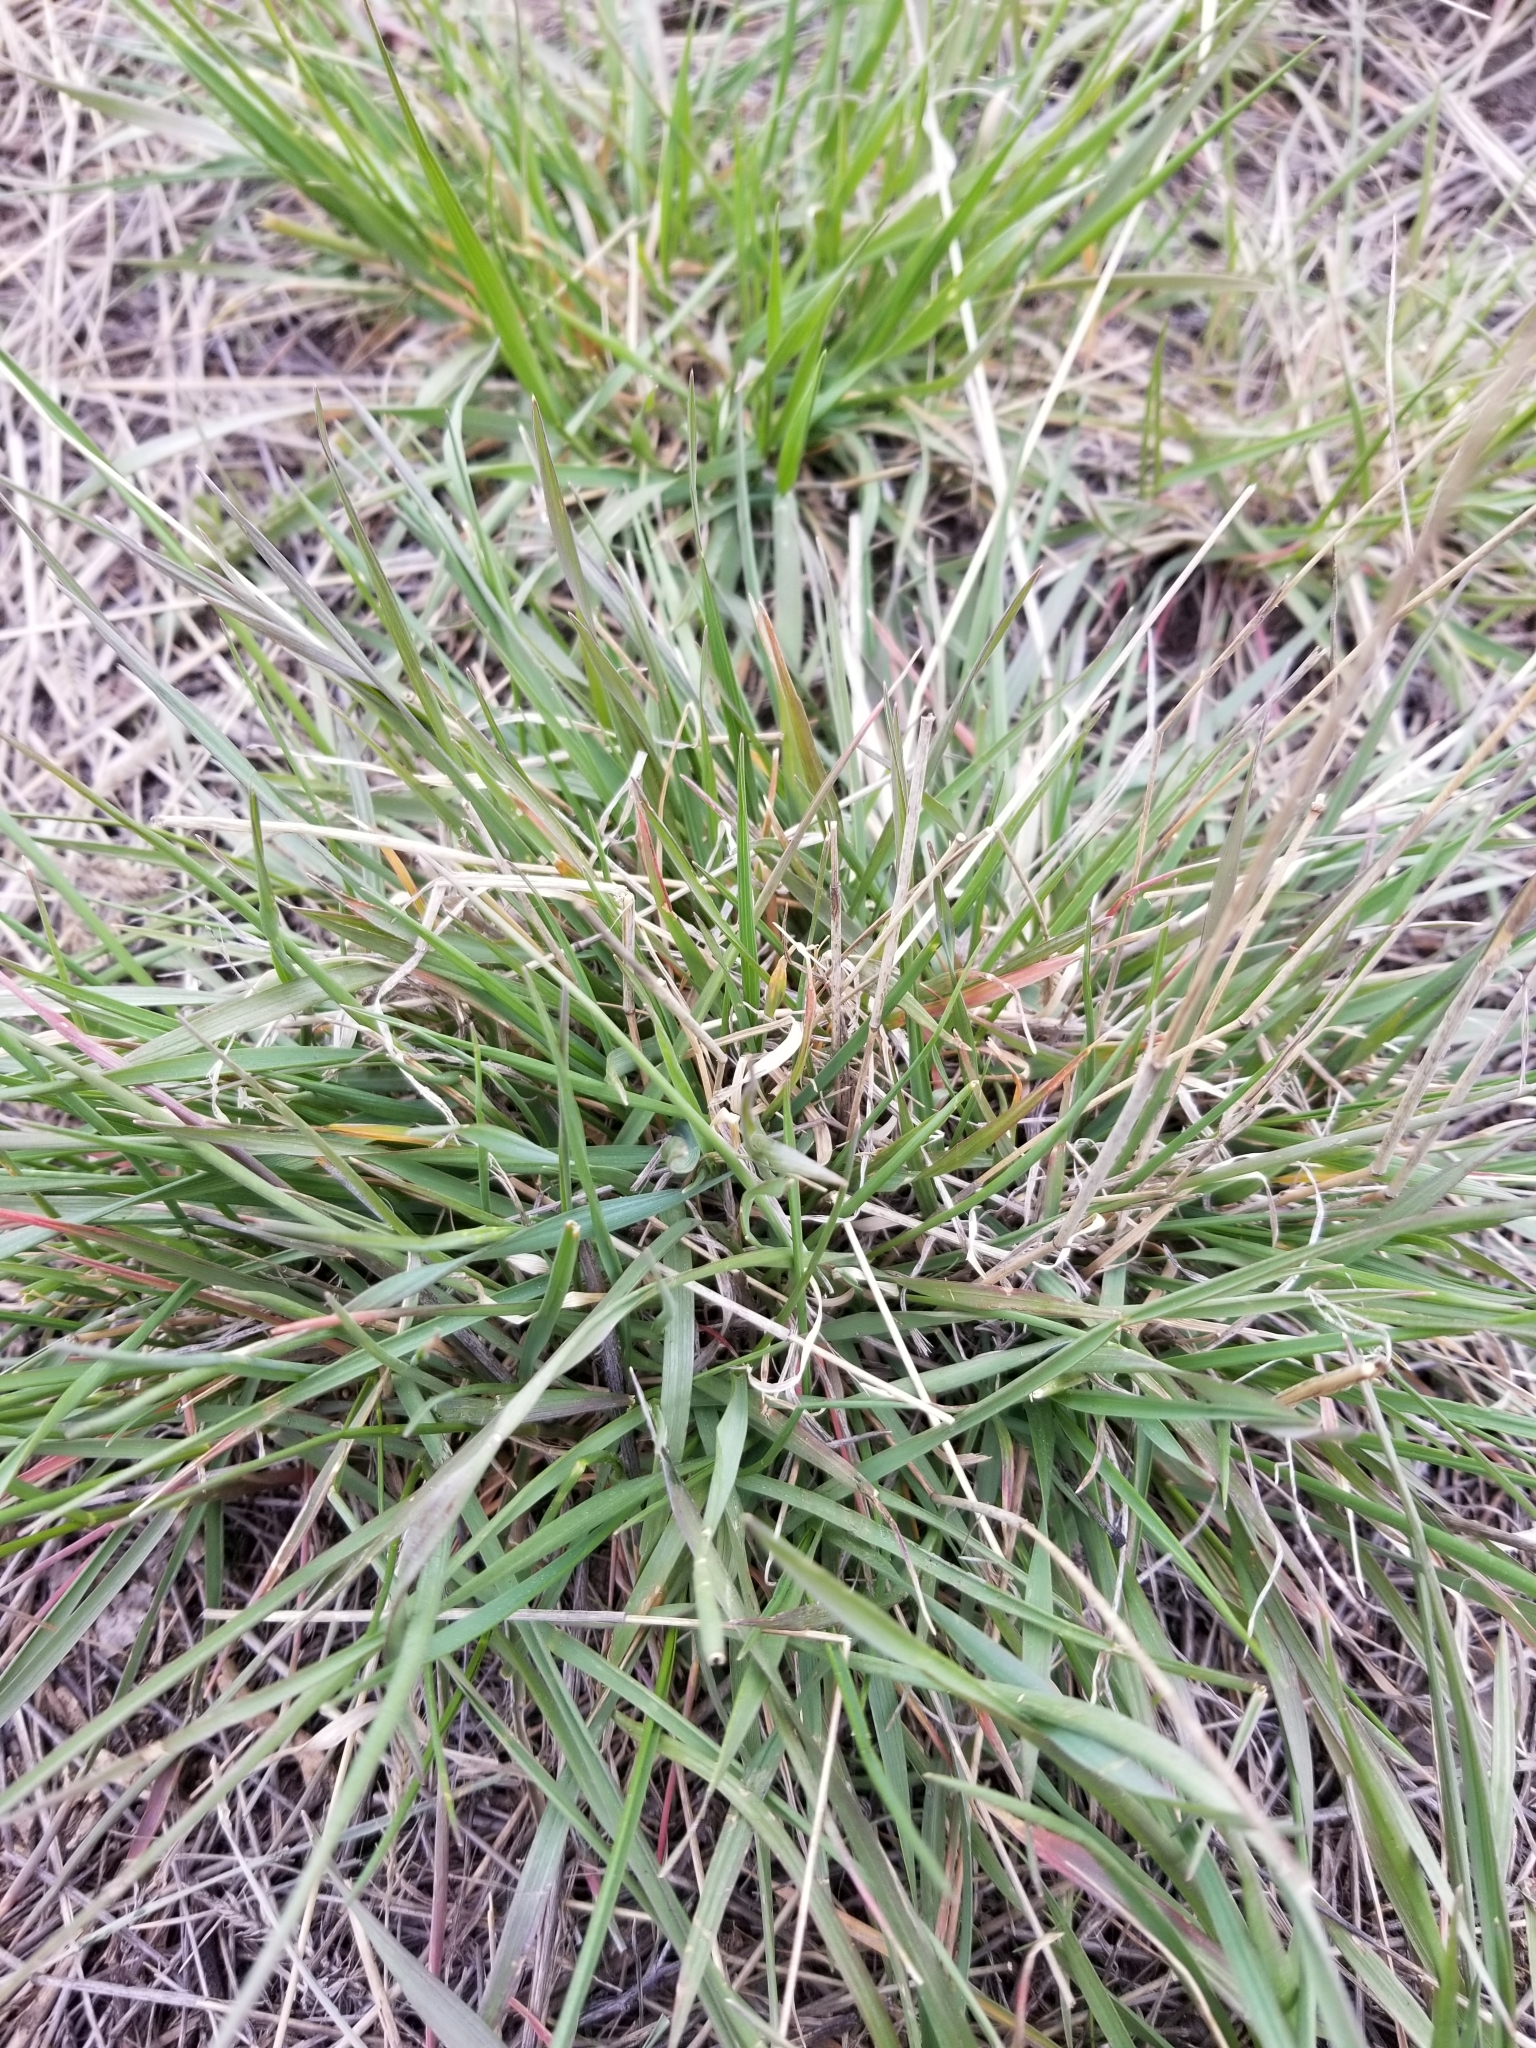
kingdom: Plantae
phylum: Tracheophyta
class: Liliopsida
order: Poales
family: Poaceae
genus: Agropyron
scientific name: Agropyron cristatum
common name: Crested wheatgrass
